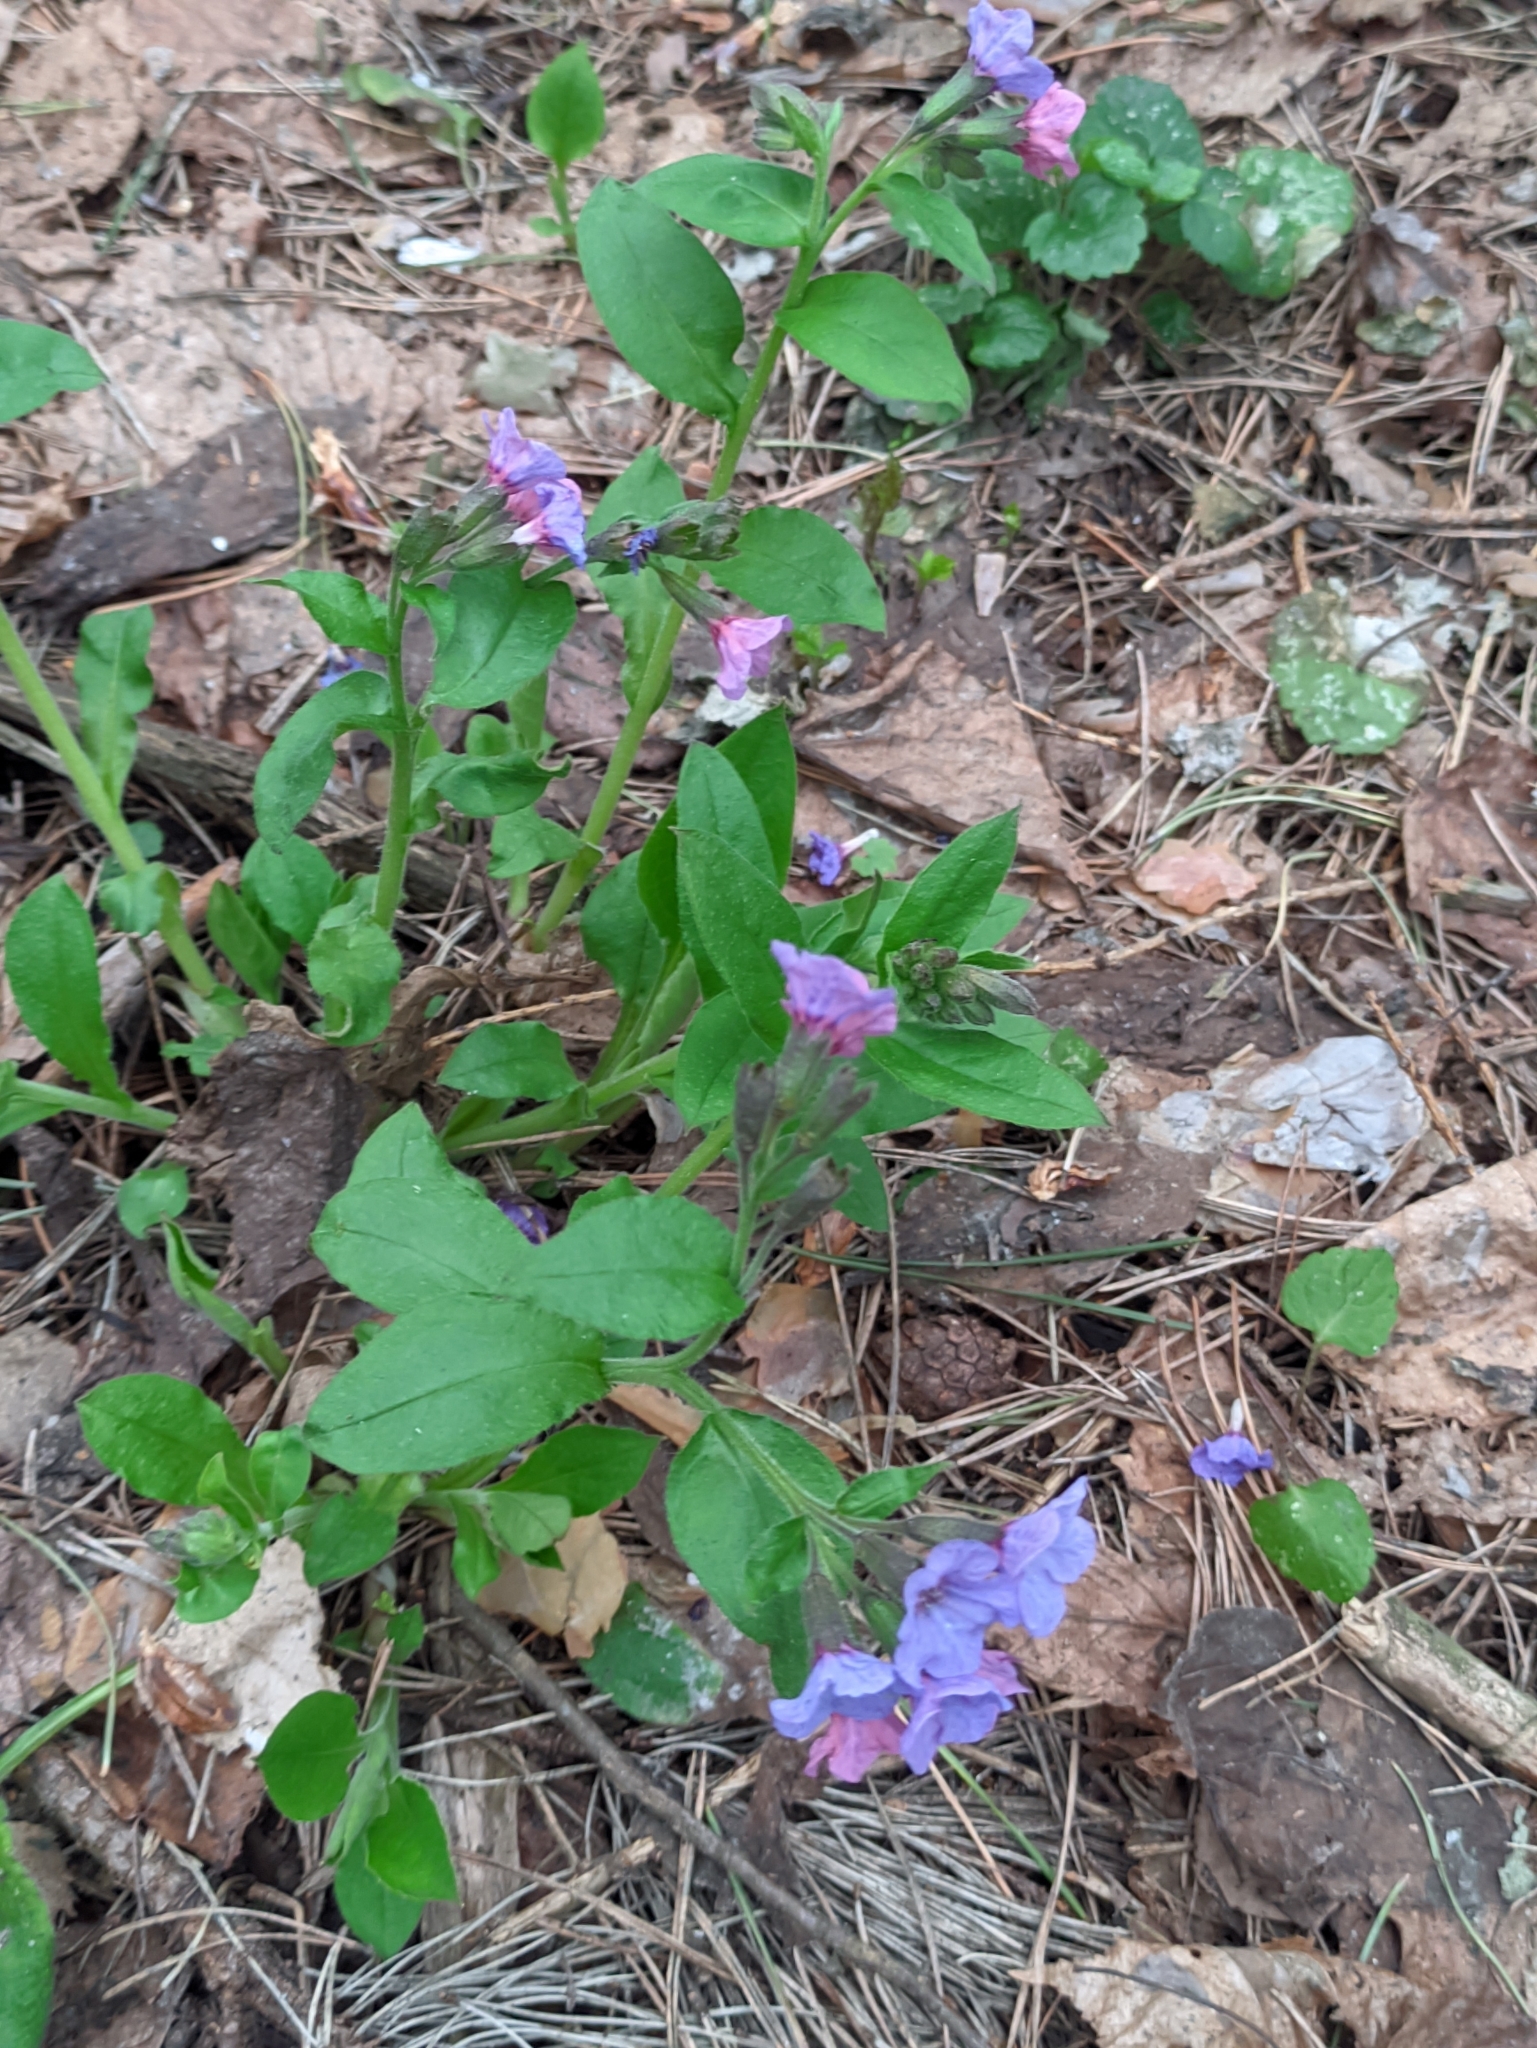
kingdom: Plantae
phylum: Tracheophyta
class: Magnoliopsida
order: Boraginales
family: Boraginaceae
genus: Pulmonaria
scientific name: Pulmonaria obscura
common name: Suffolk lungwort
